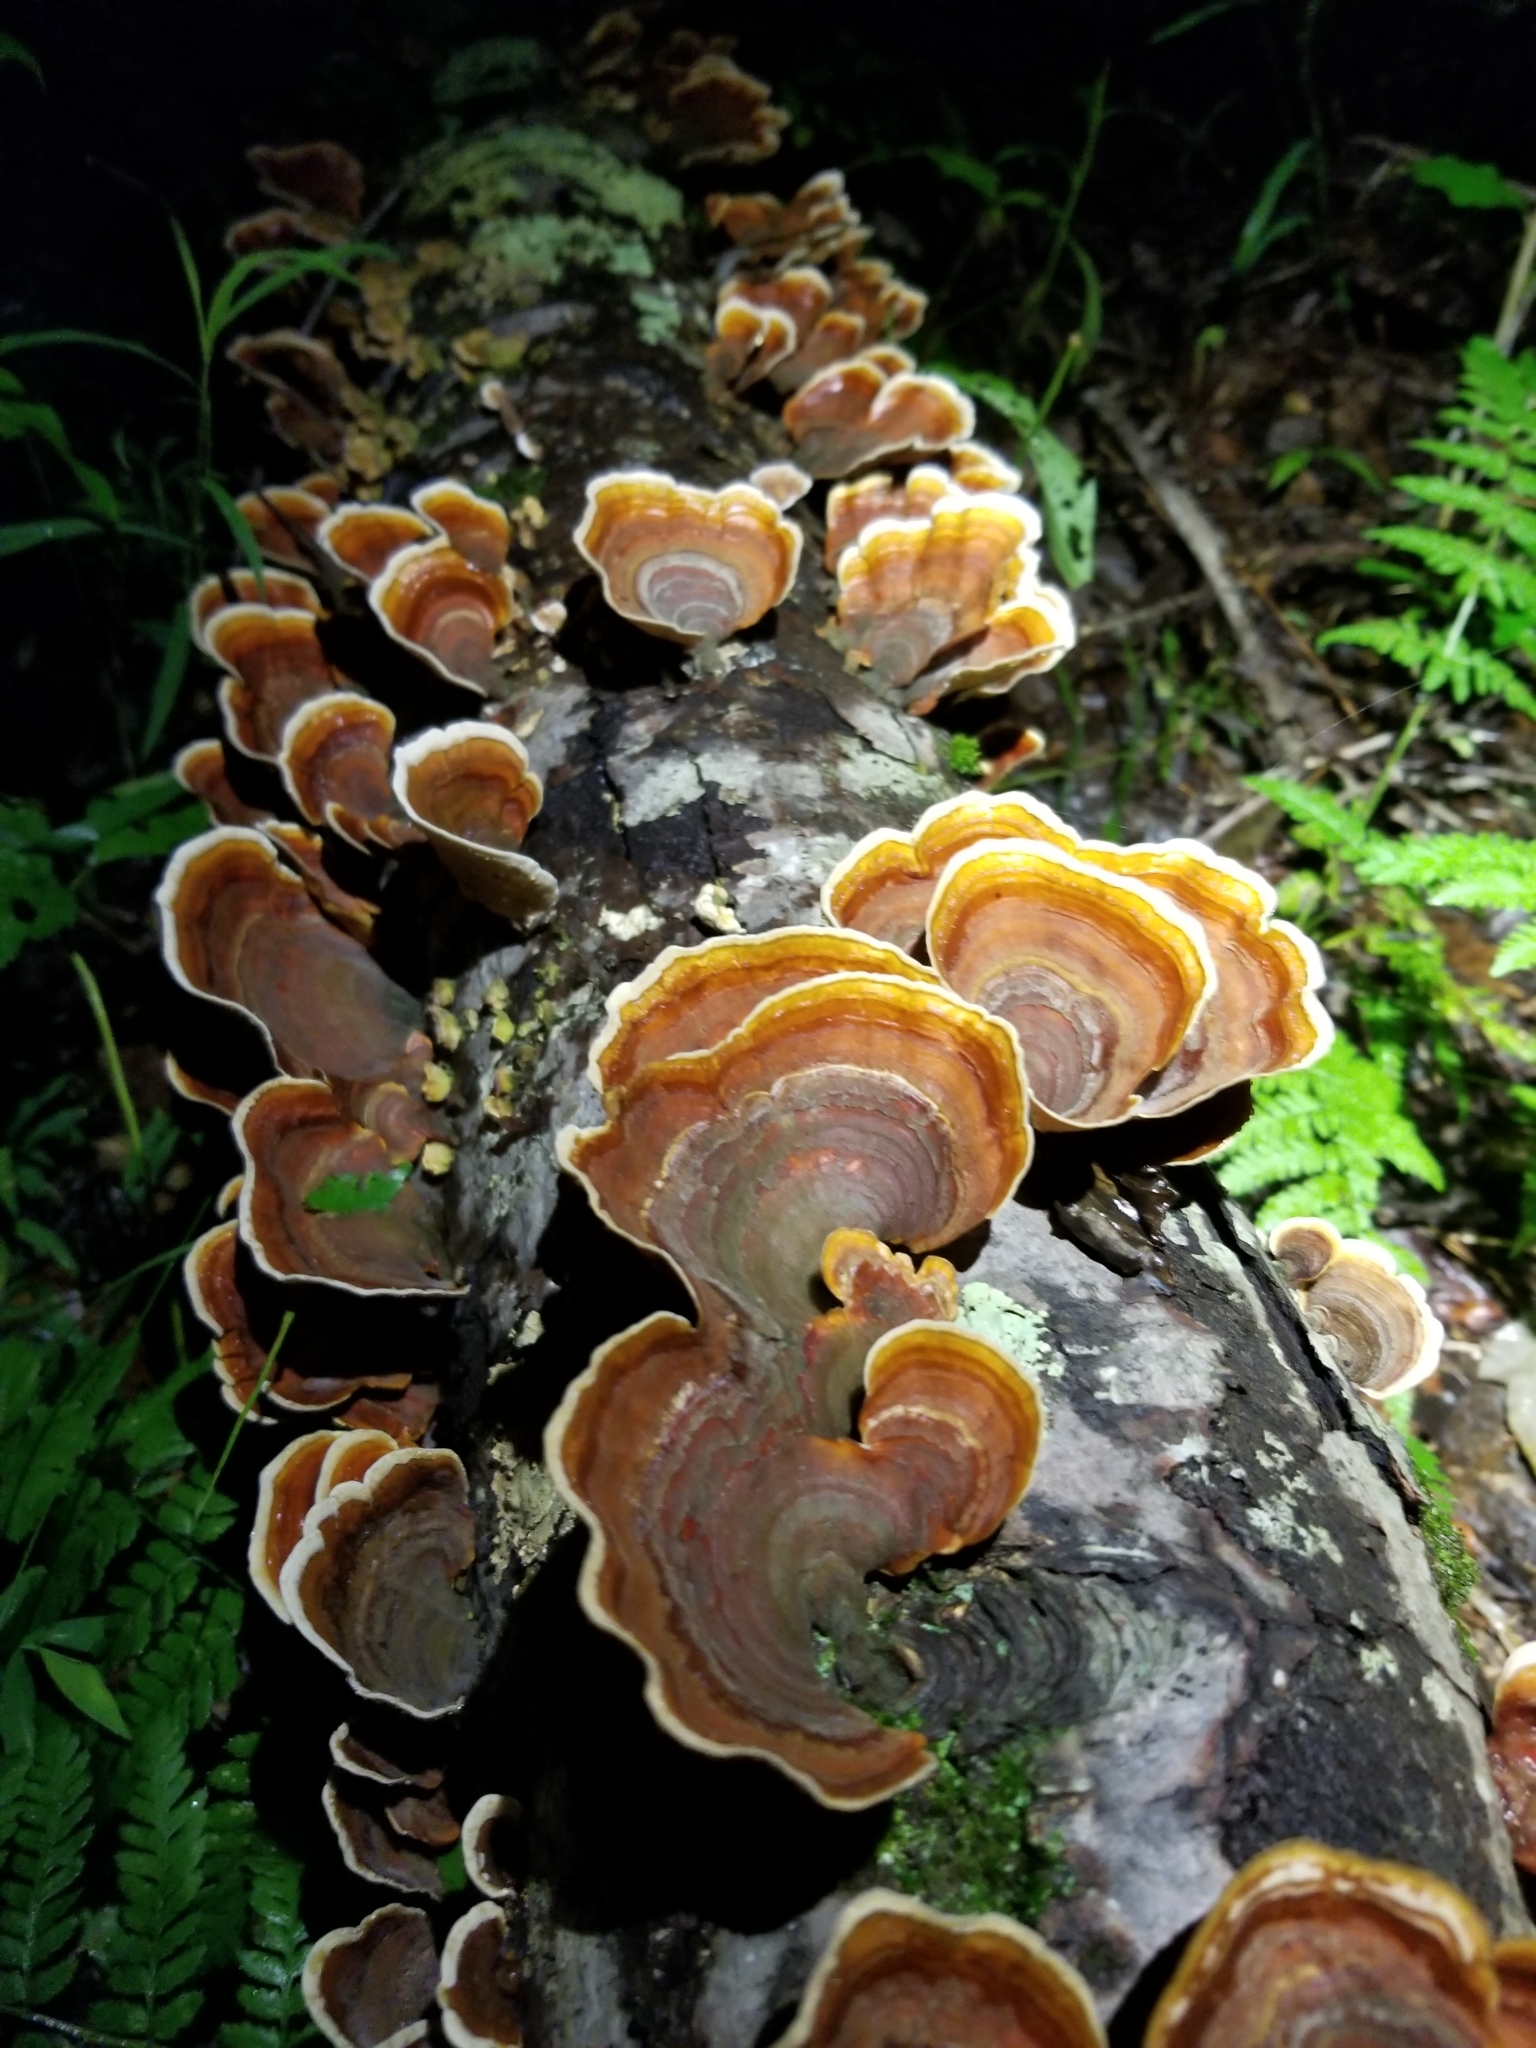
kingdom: Fungi
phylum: Basidiomycota
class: Agaricomycetes
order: Russulales
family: Stereaceae
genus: Stereum
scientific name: Stereum ostrea
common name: False turkeytail
